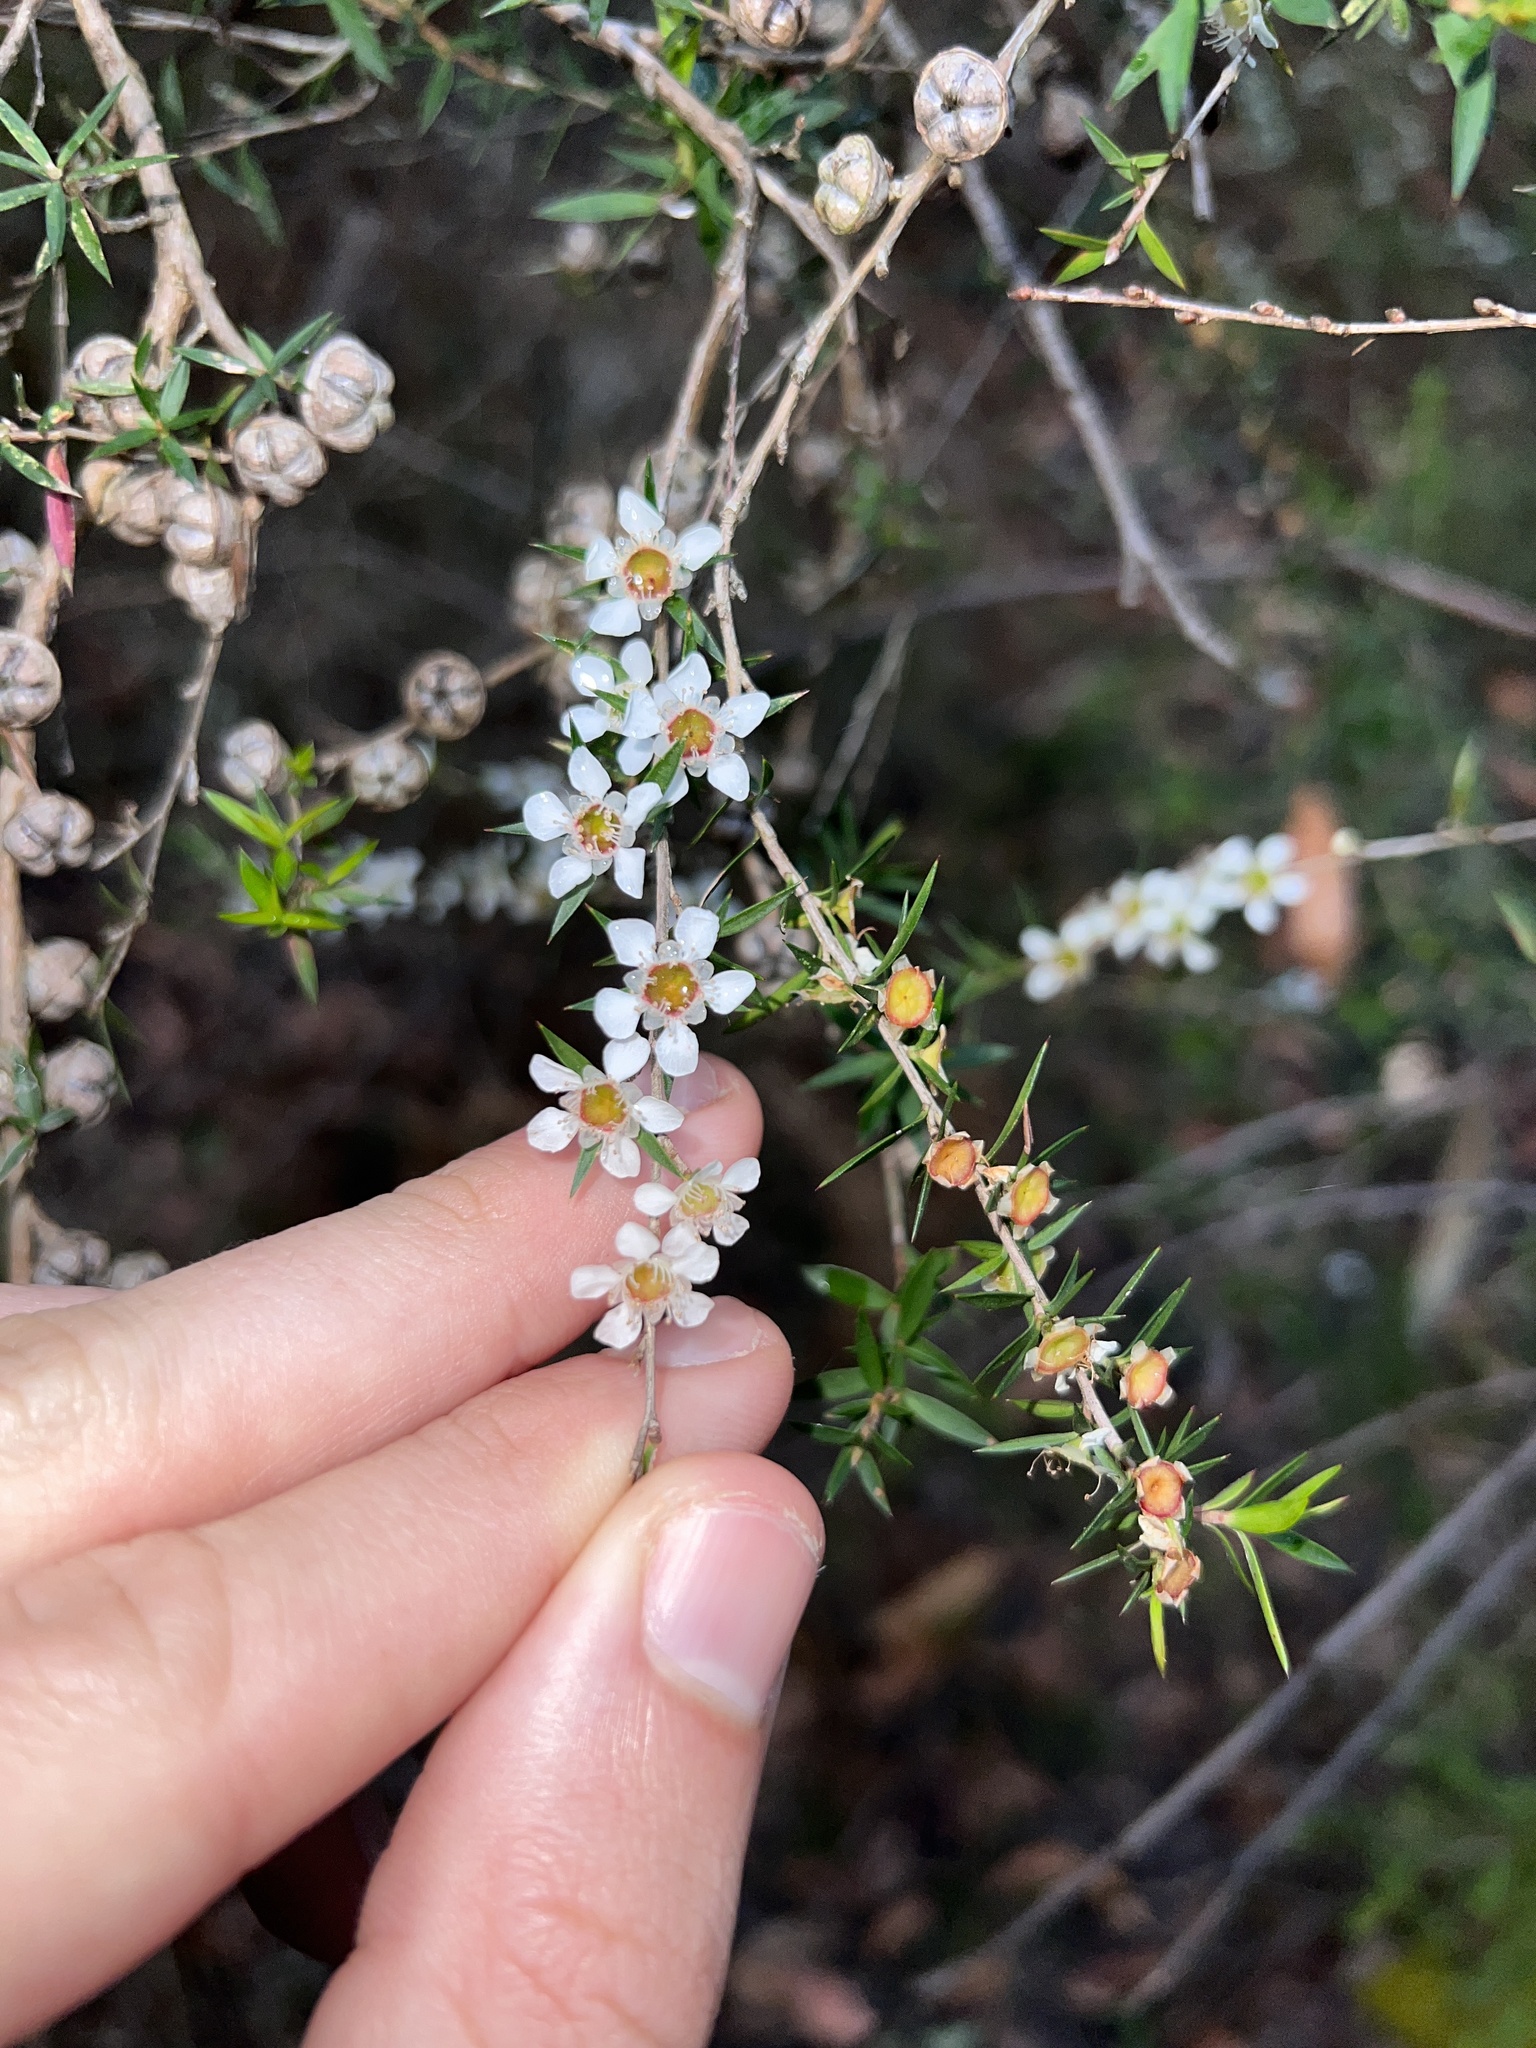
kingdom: Plantae
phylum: Tracheophyta
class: Magnoliopsida
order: Myrtales
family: Myrtaceae
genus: Leptospermum
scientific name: Leptospermum continentale
